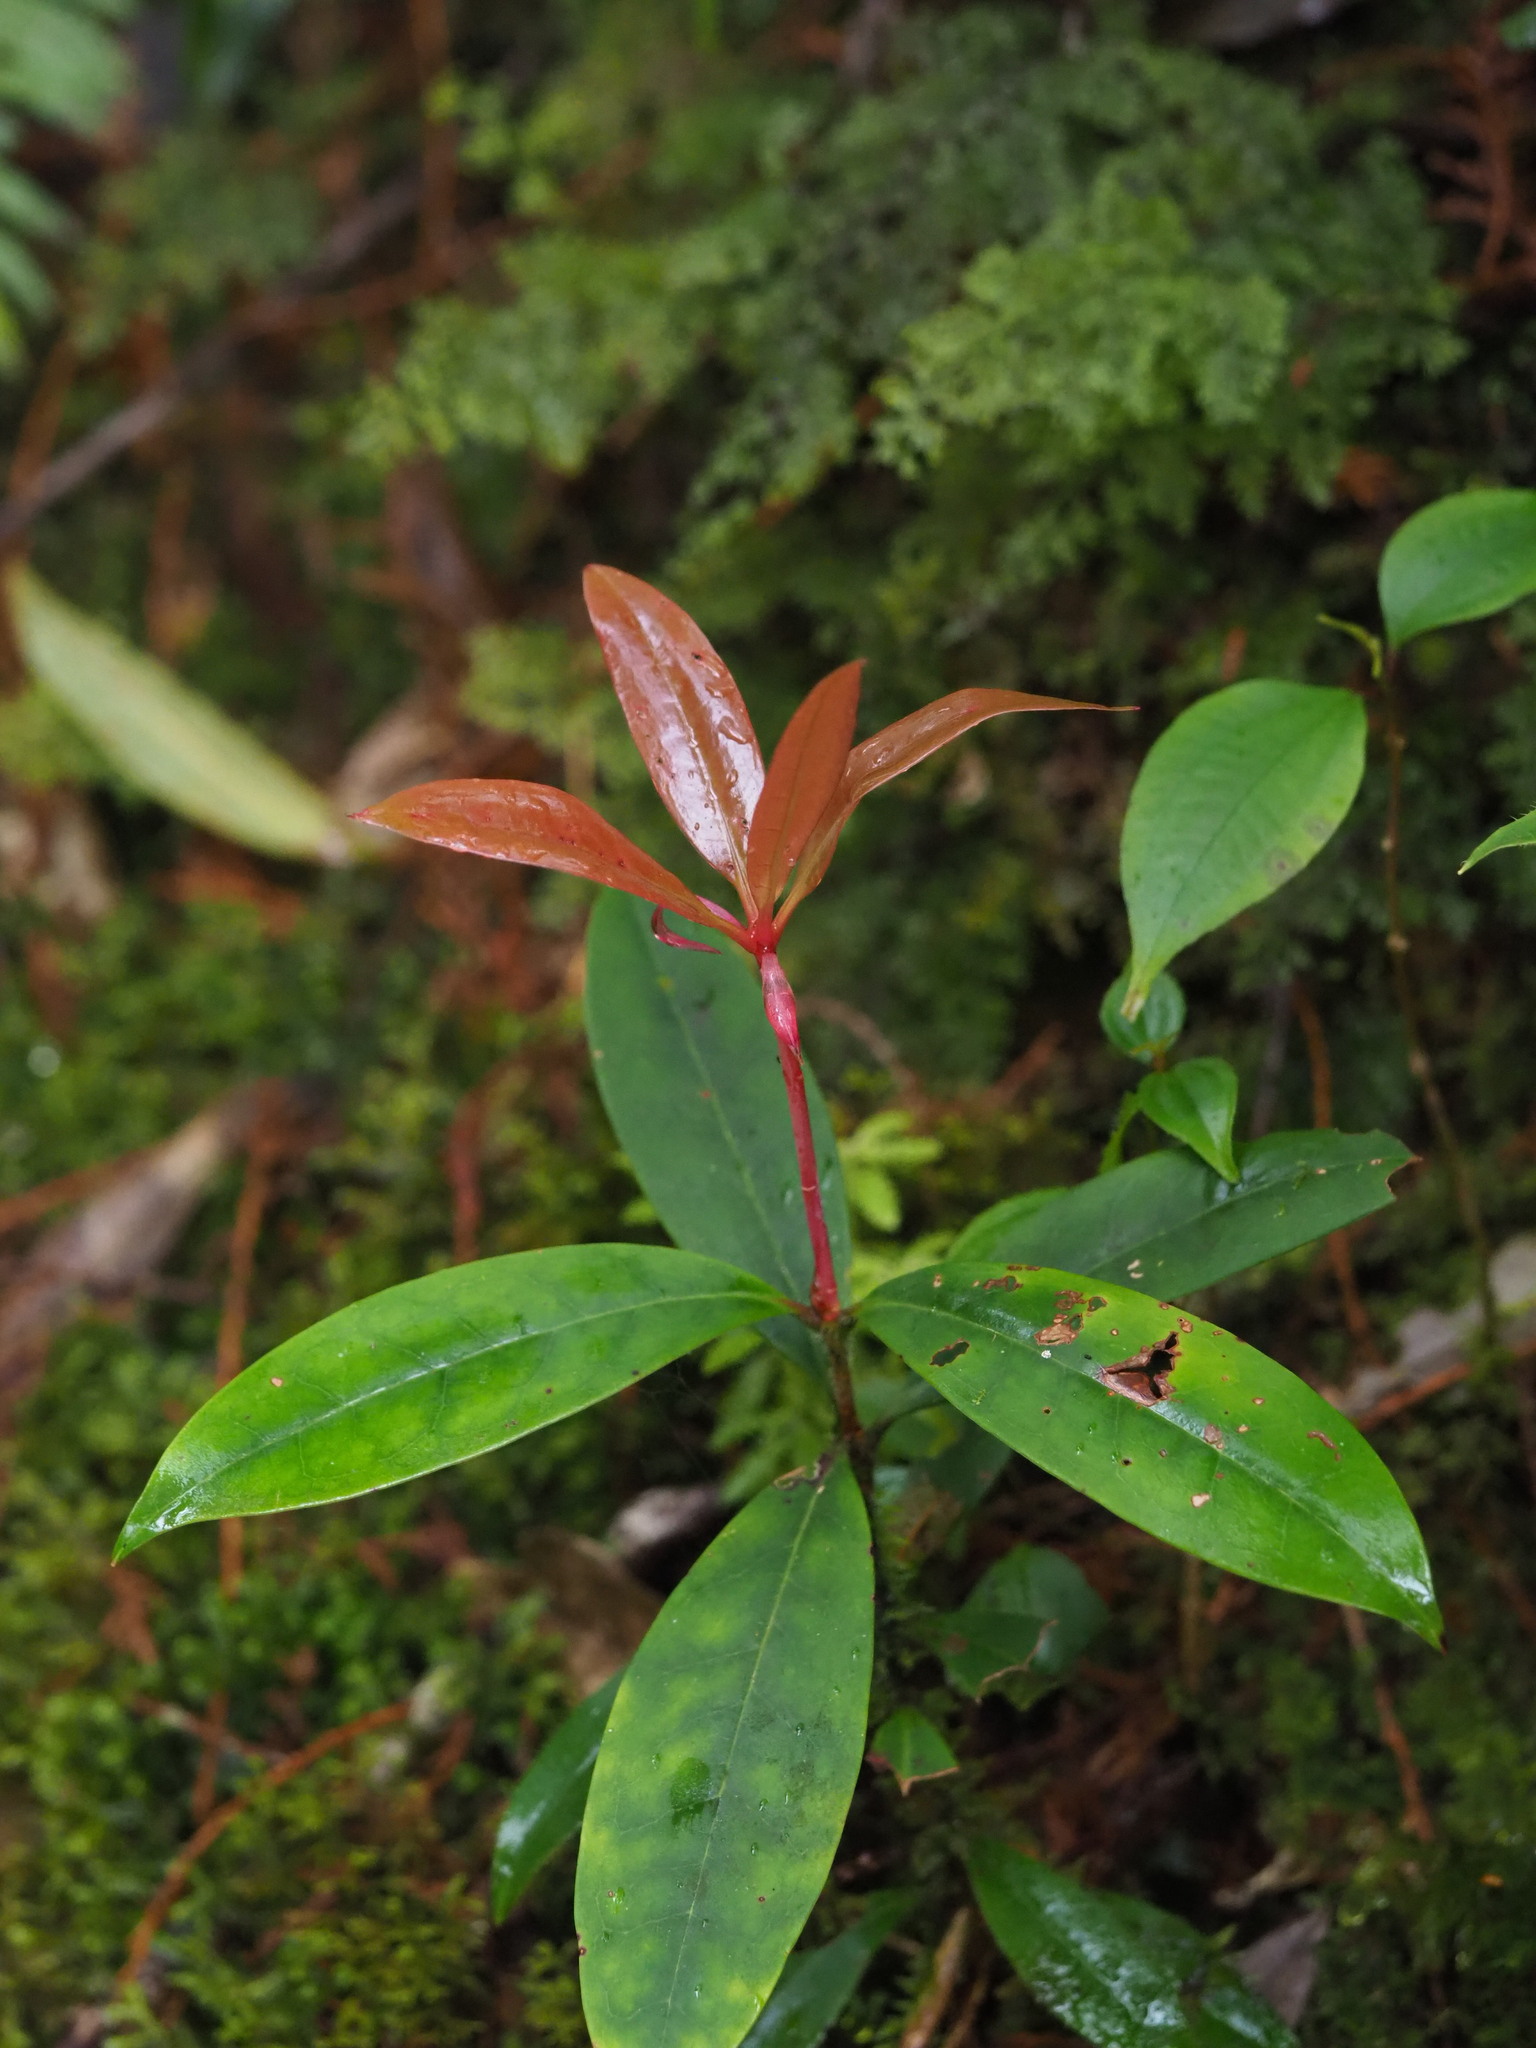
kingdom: Plantae
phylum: Tracheophyta
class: Magnoliopsida
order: Ericales
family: Ericaceae
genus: Rhododendron
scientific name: Rhododendron latoucheae
